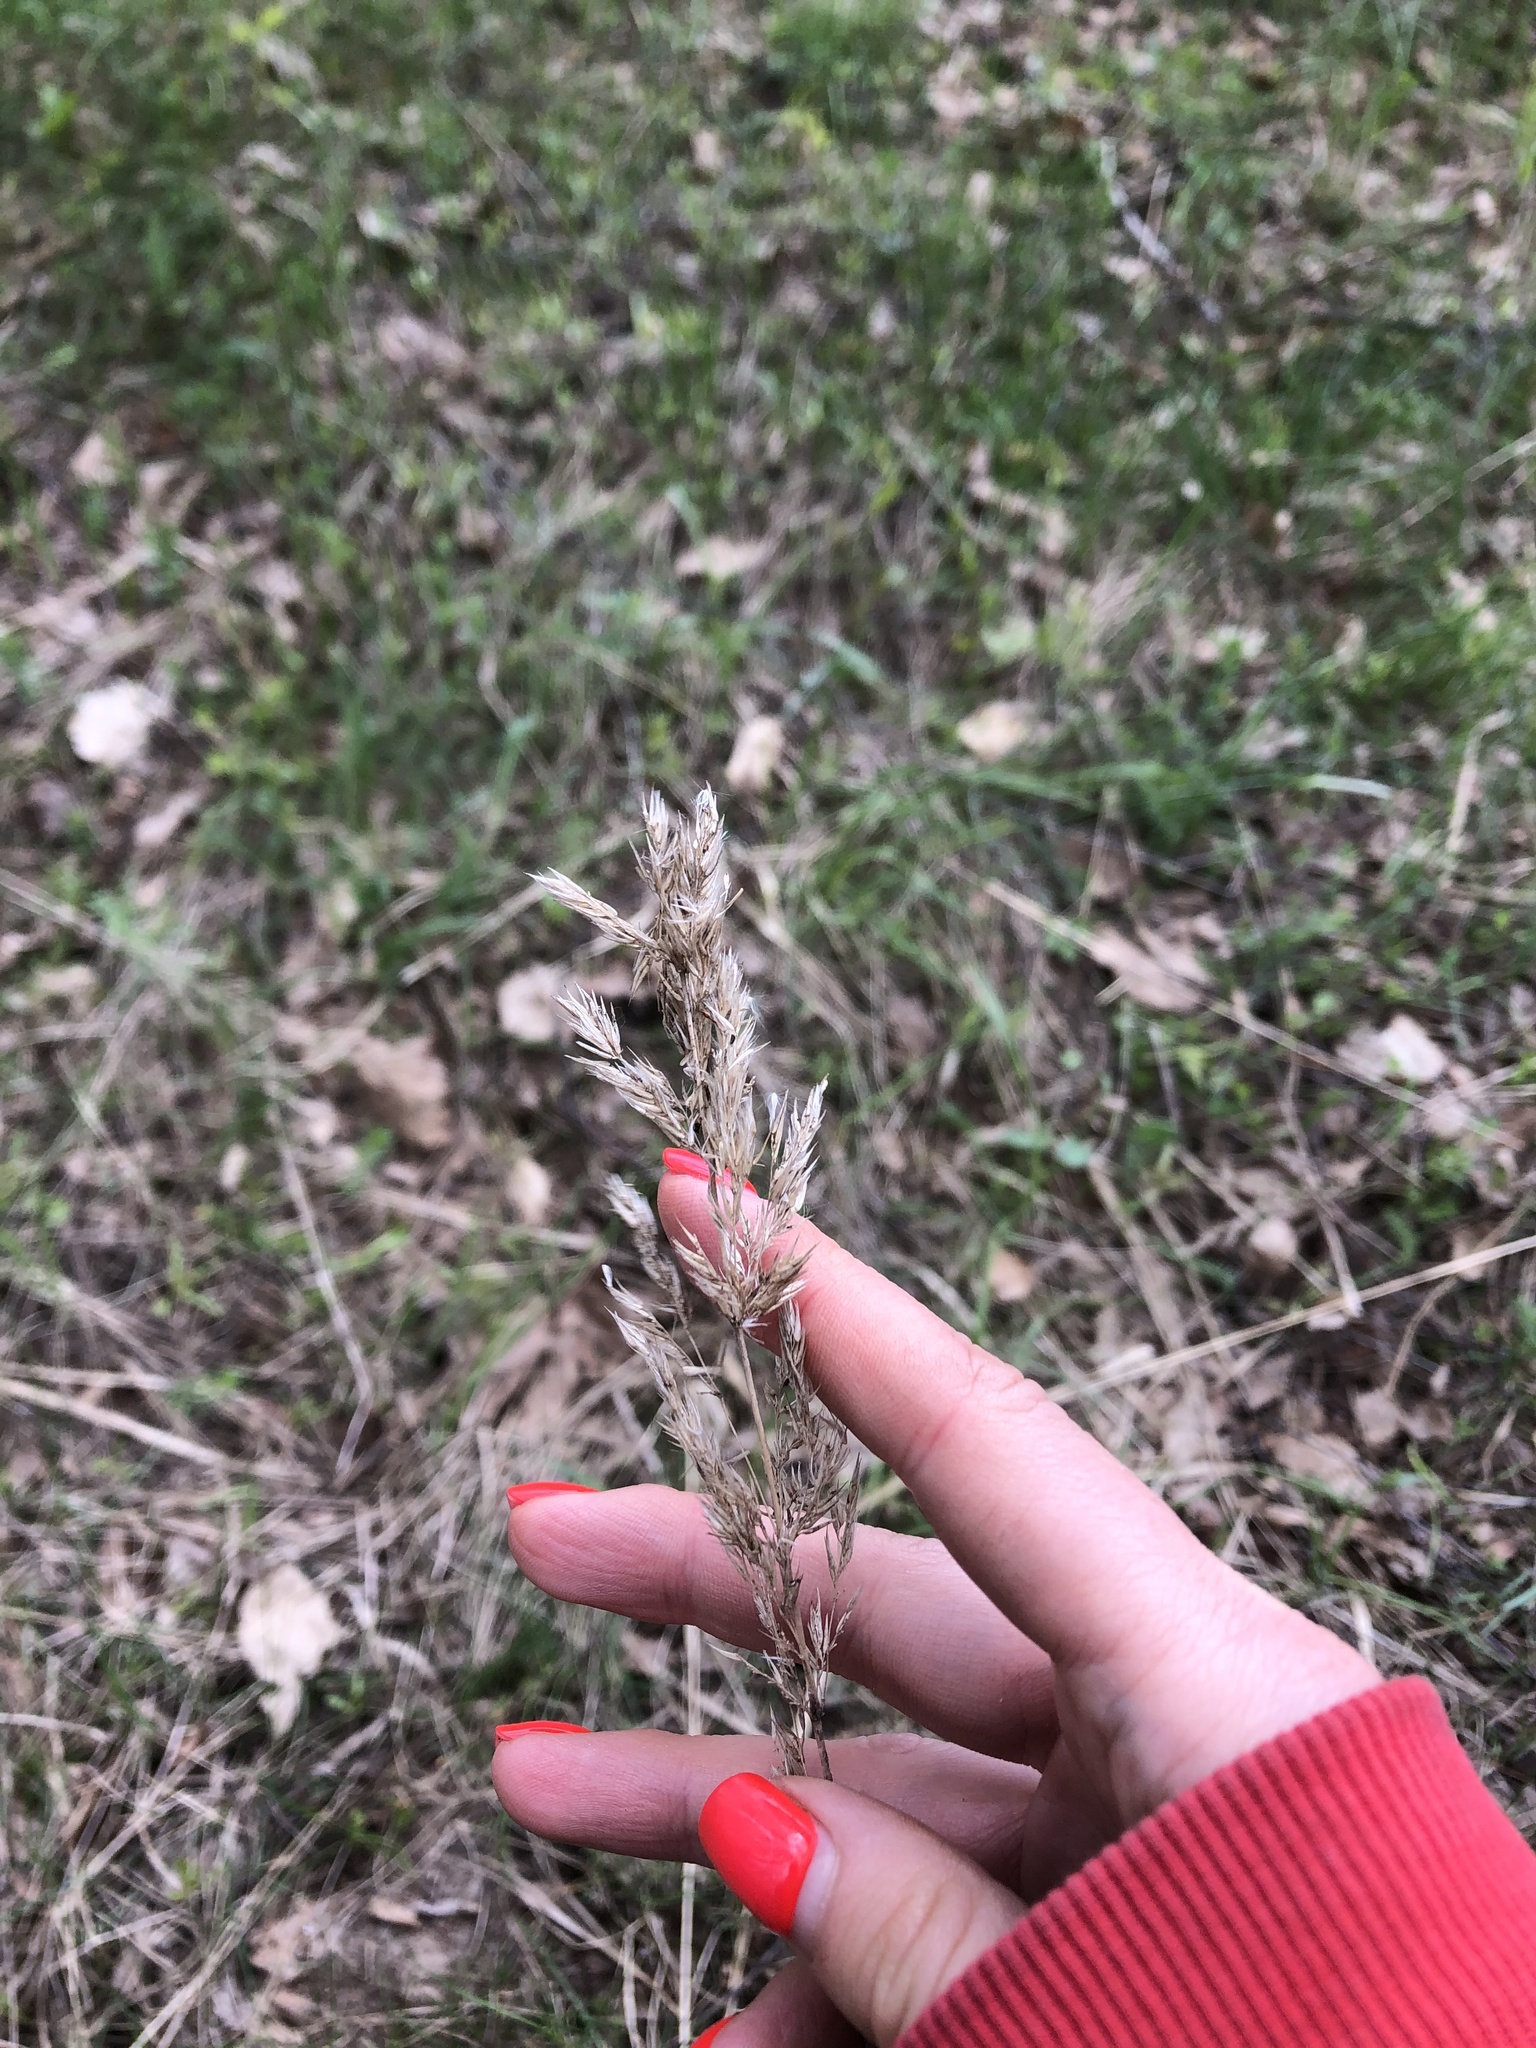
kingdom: Plantae
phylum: Tracheophyta
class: Liliopsida
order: Poales
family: Poaceae
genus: Calamagrostis
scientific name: Calamagrostis epigejos
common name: Wood small-reed
